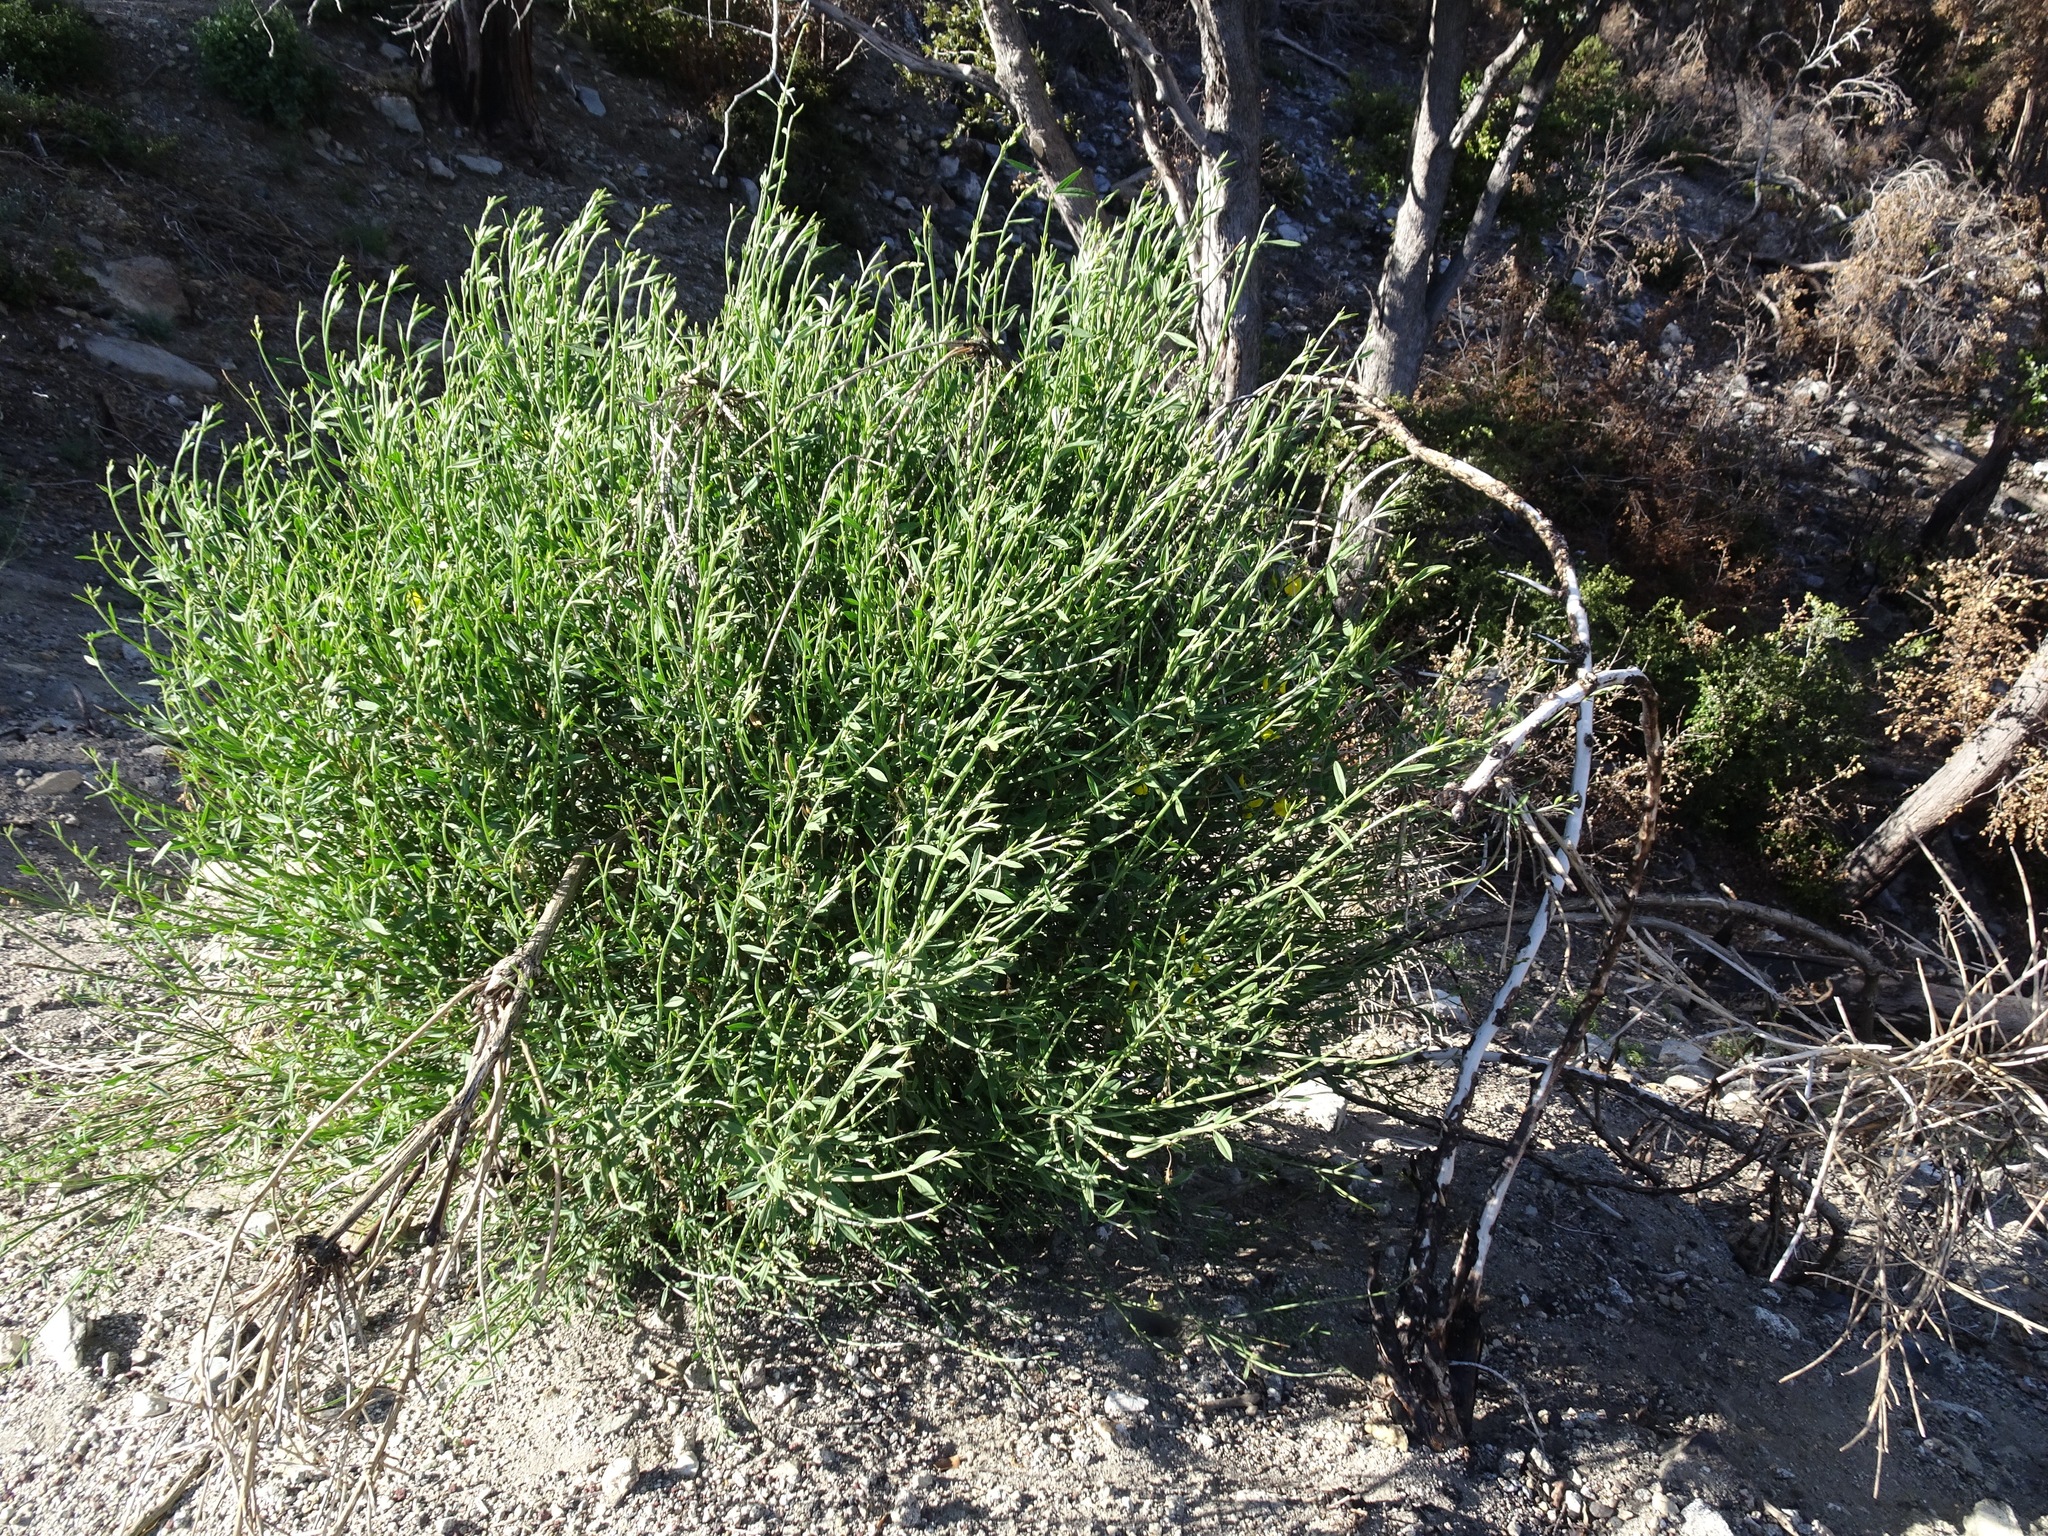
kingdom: Plantae
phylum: Tracheophyta
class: Magnoliopsida
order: Fabales
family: Fabaceae
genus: Spartium
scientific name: Spartium junceum
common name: Spanish broom
